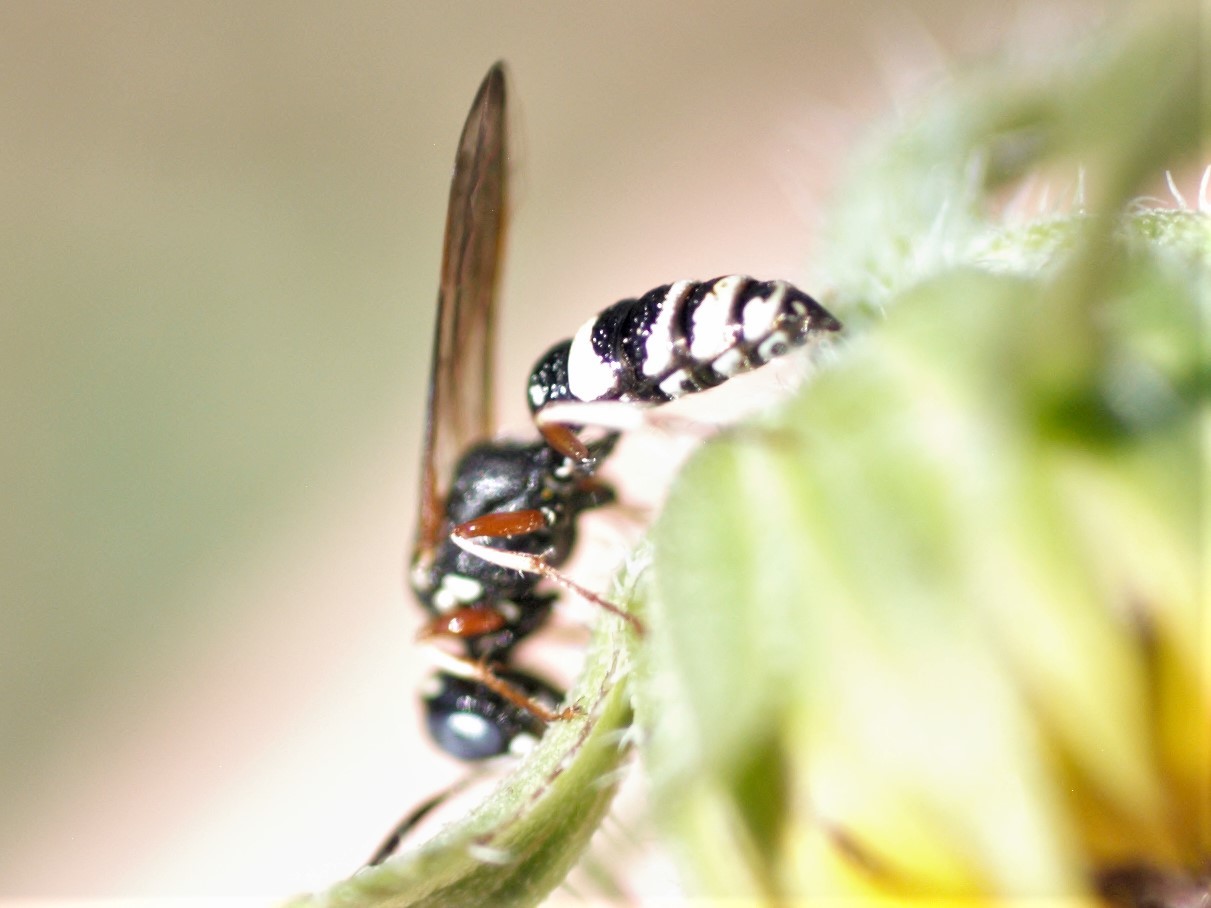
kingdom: Animalia
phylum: Arthropoda
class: Insecta
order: Hymenoptera
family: Crabronidae
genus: Philanthus
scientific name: Philanthus gibbosus
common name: Humped beewolf
